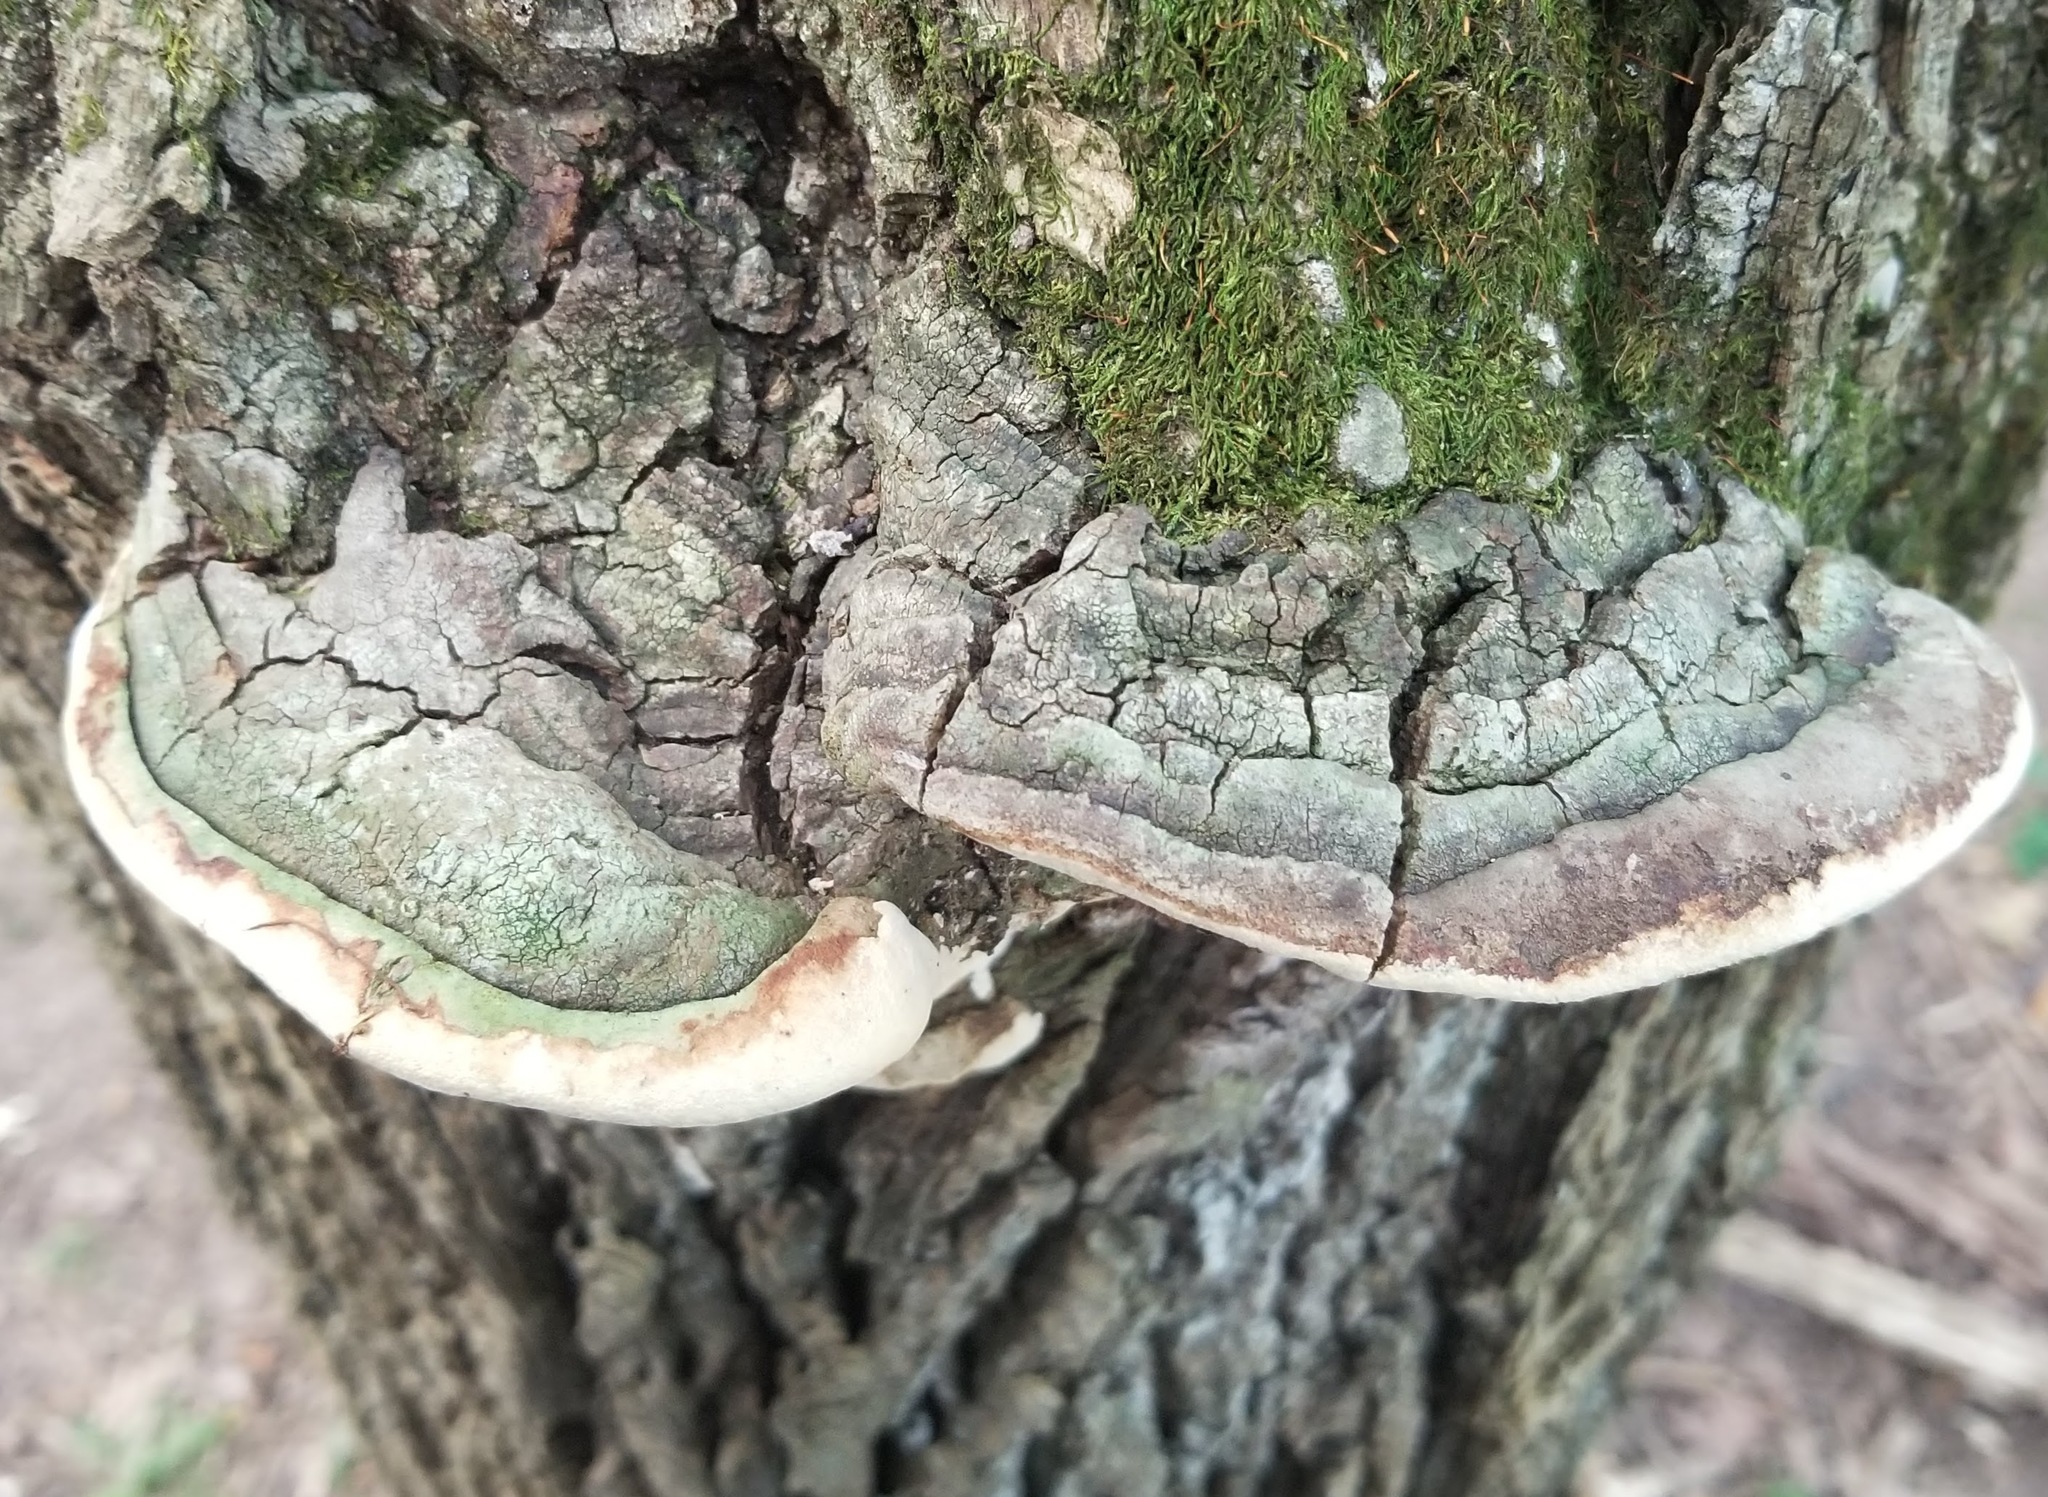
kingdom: Fungi
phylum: Basidiomycota
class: Agaricomycetes
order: Polyporales
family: Polyporaceae
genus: Perenniporia
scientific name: Perenniporia fraxinophila
